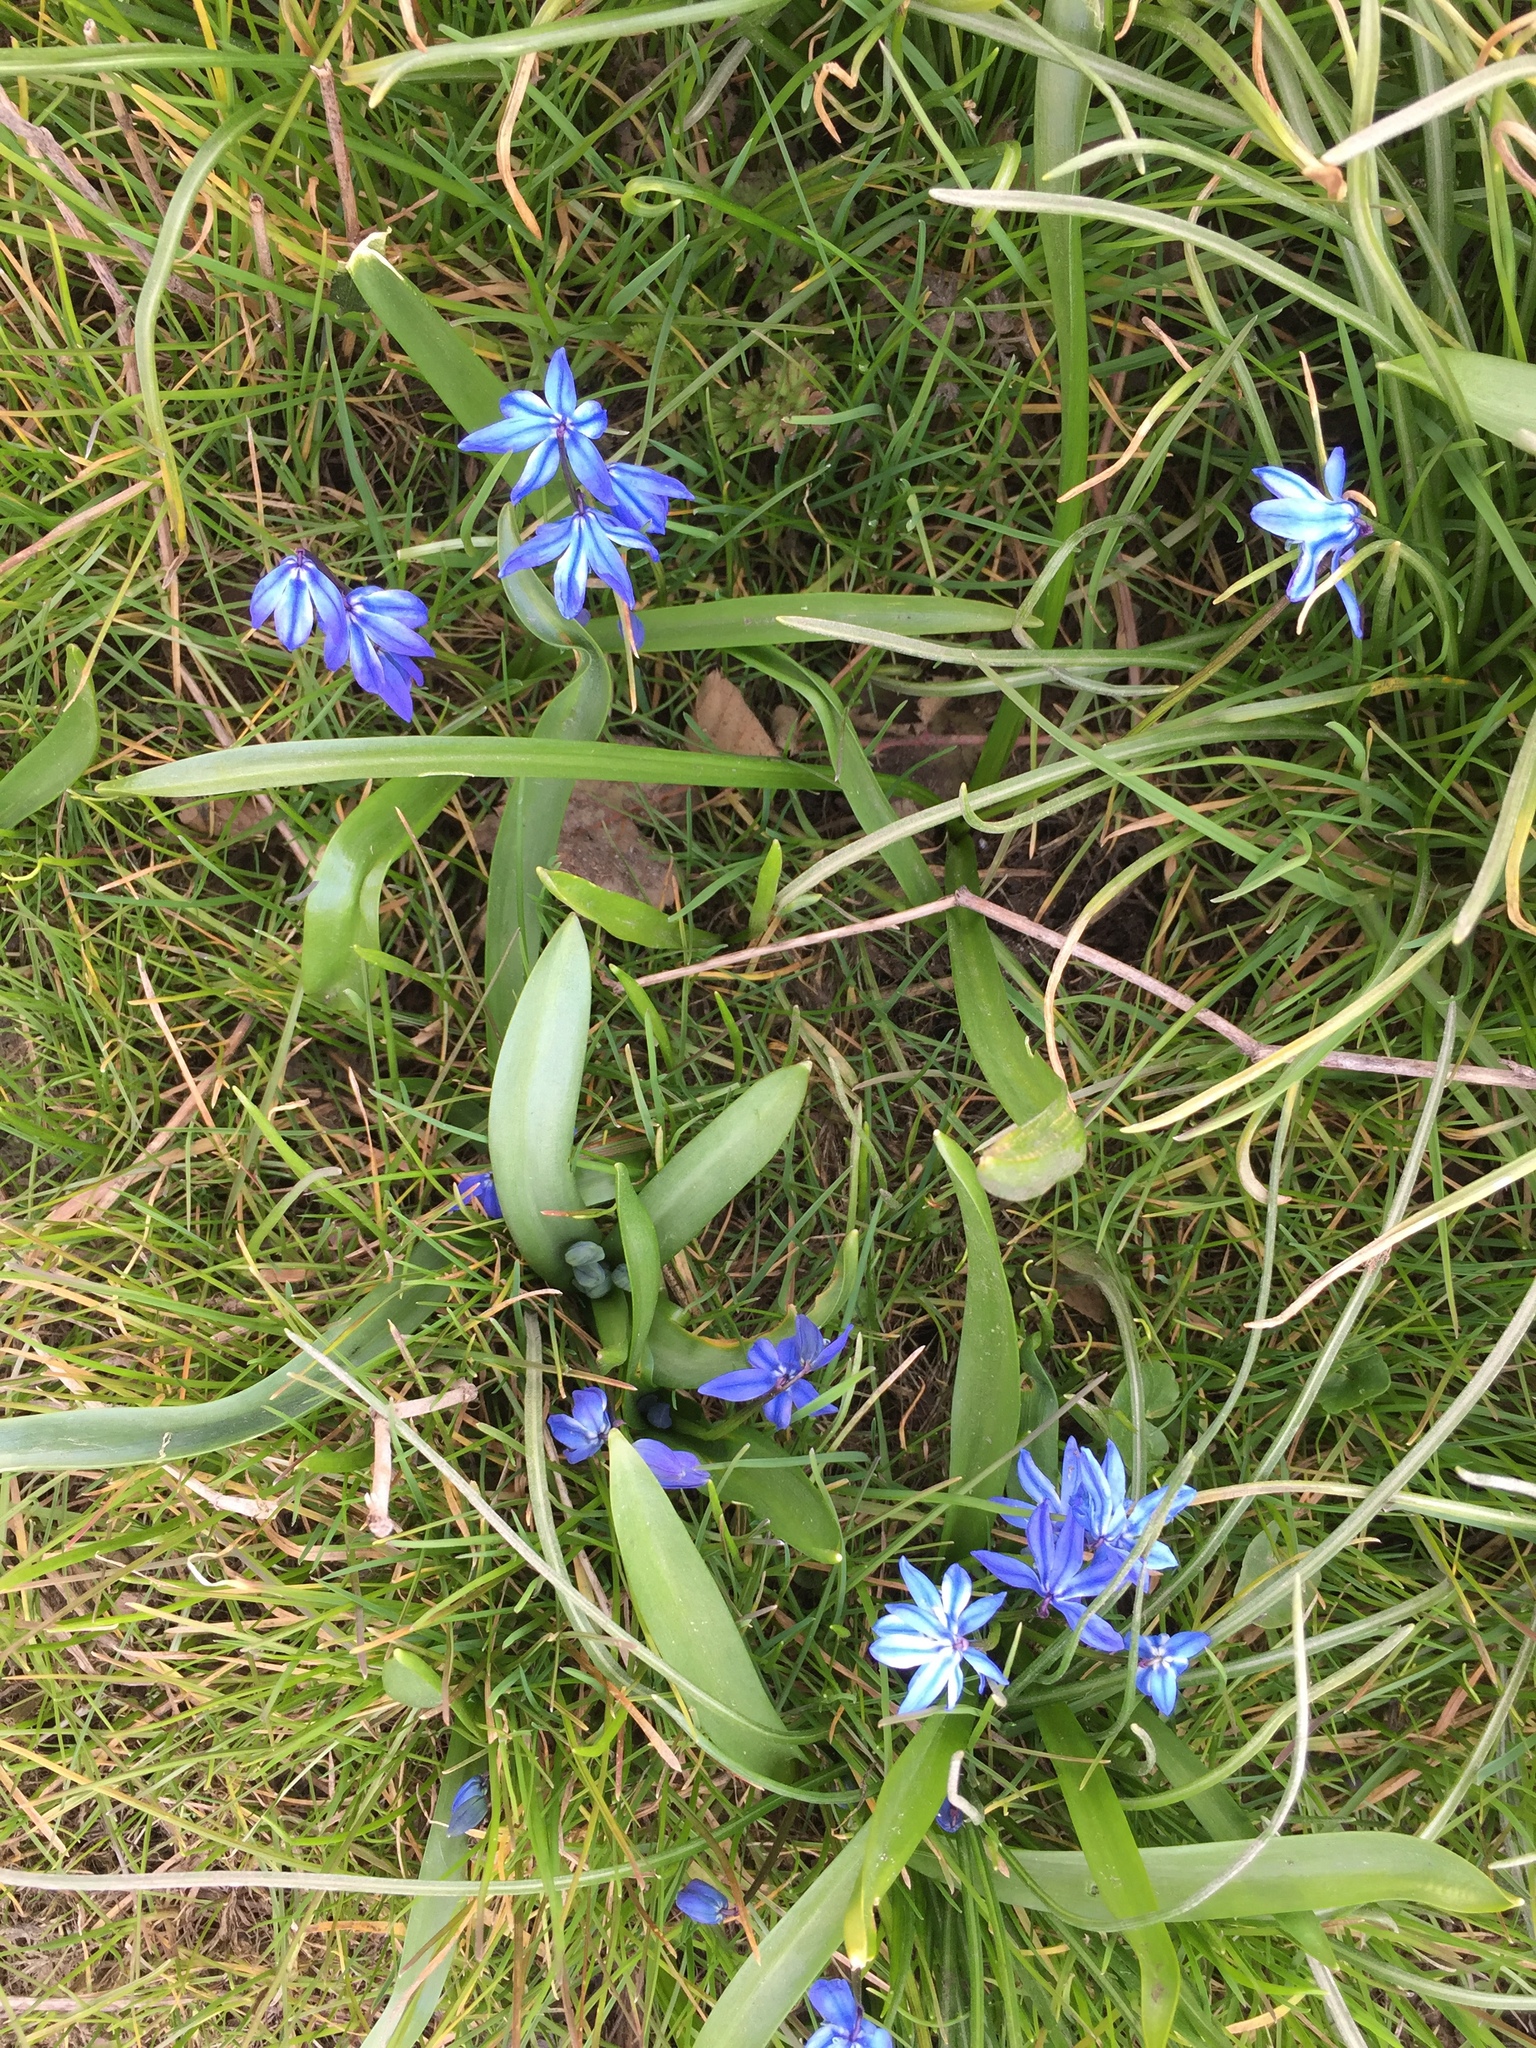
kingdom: Plantae
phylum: Tracheophyta
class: Liliopsida
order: Asparagales
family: Asparagaceae
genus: Scilla
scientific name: Scilla siberica
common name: Siberian squill
